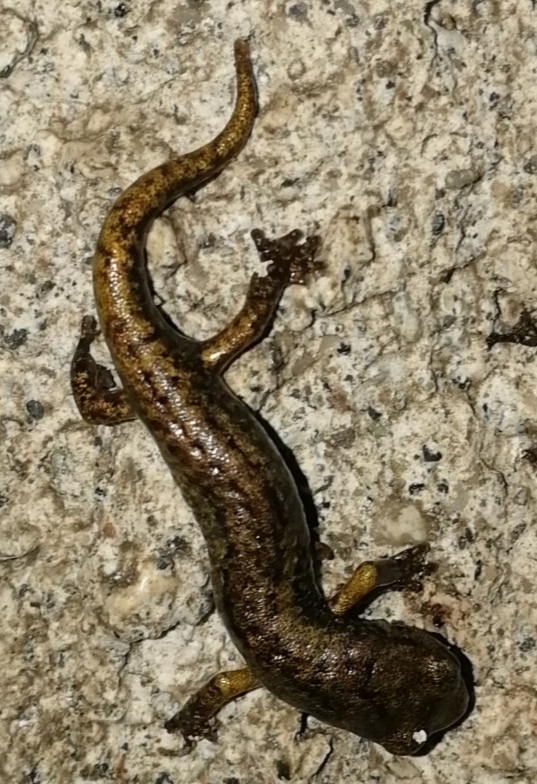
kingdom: Animalia
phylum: Chordata
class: Amphibia
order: Caudata
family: Plethodontidae
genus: Speleomantes
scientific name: Speleomantes strinatii
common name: French cave salamander
